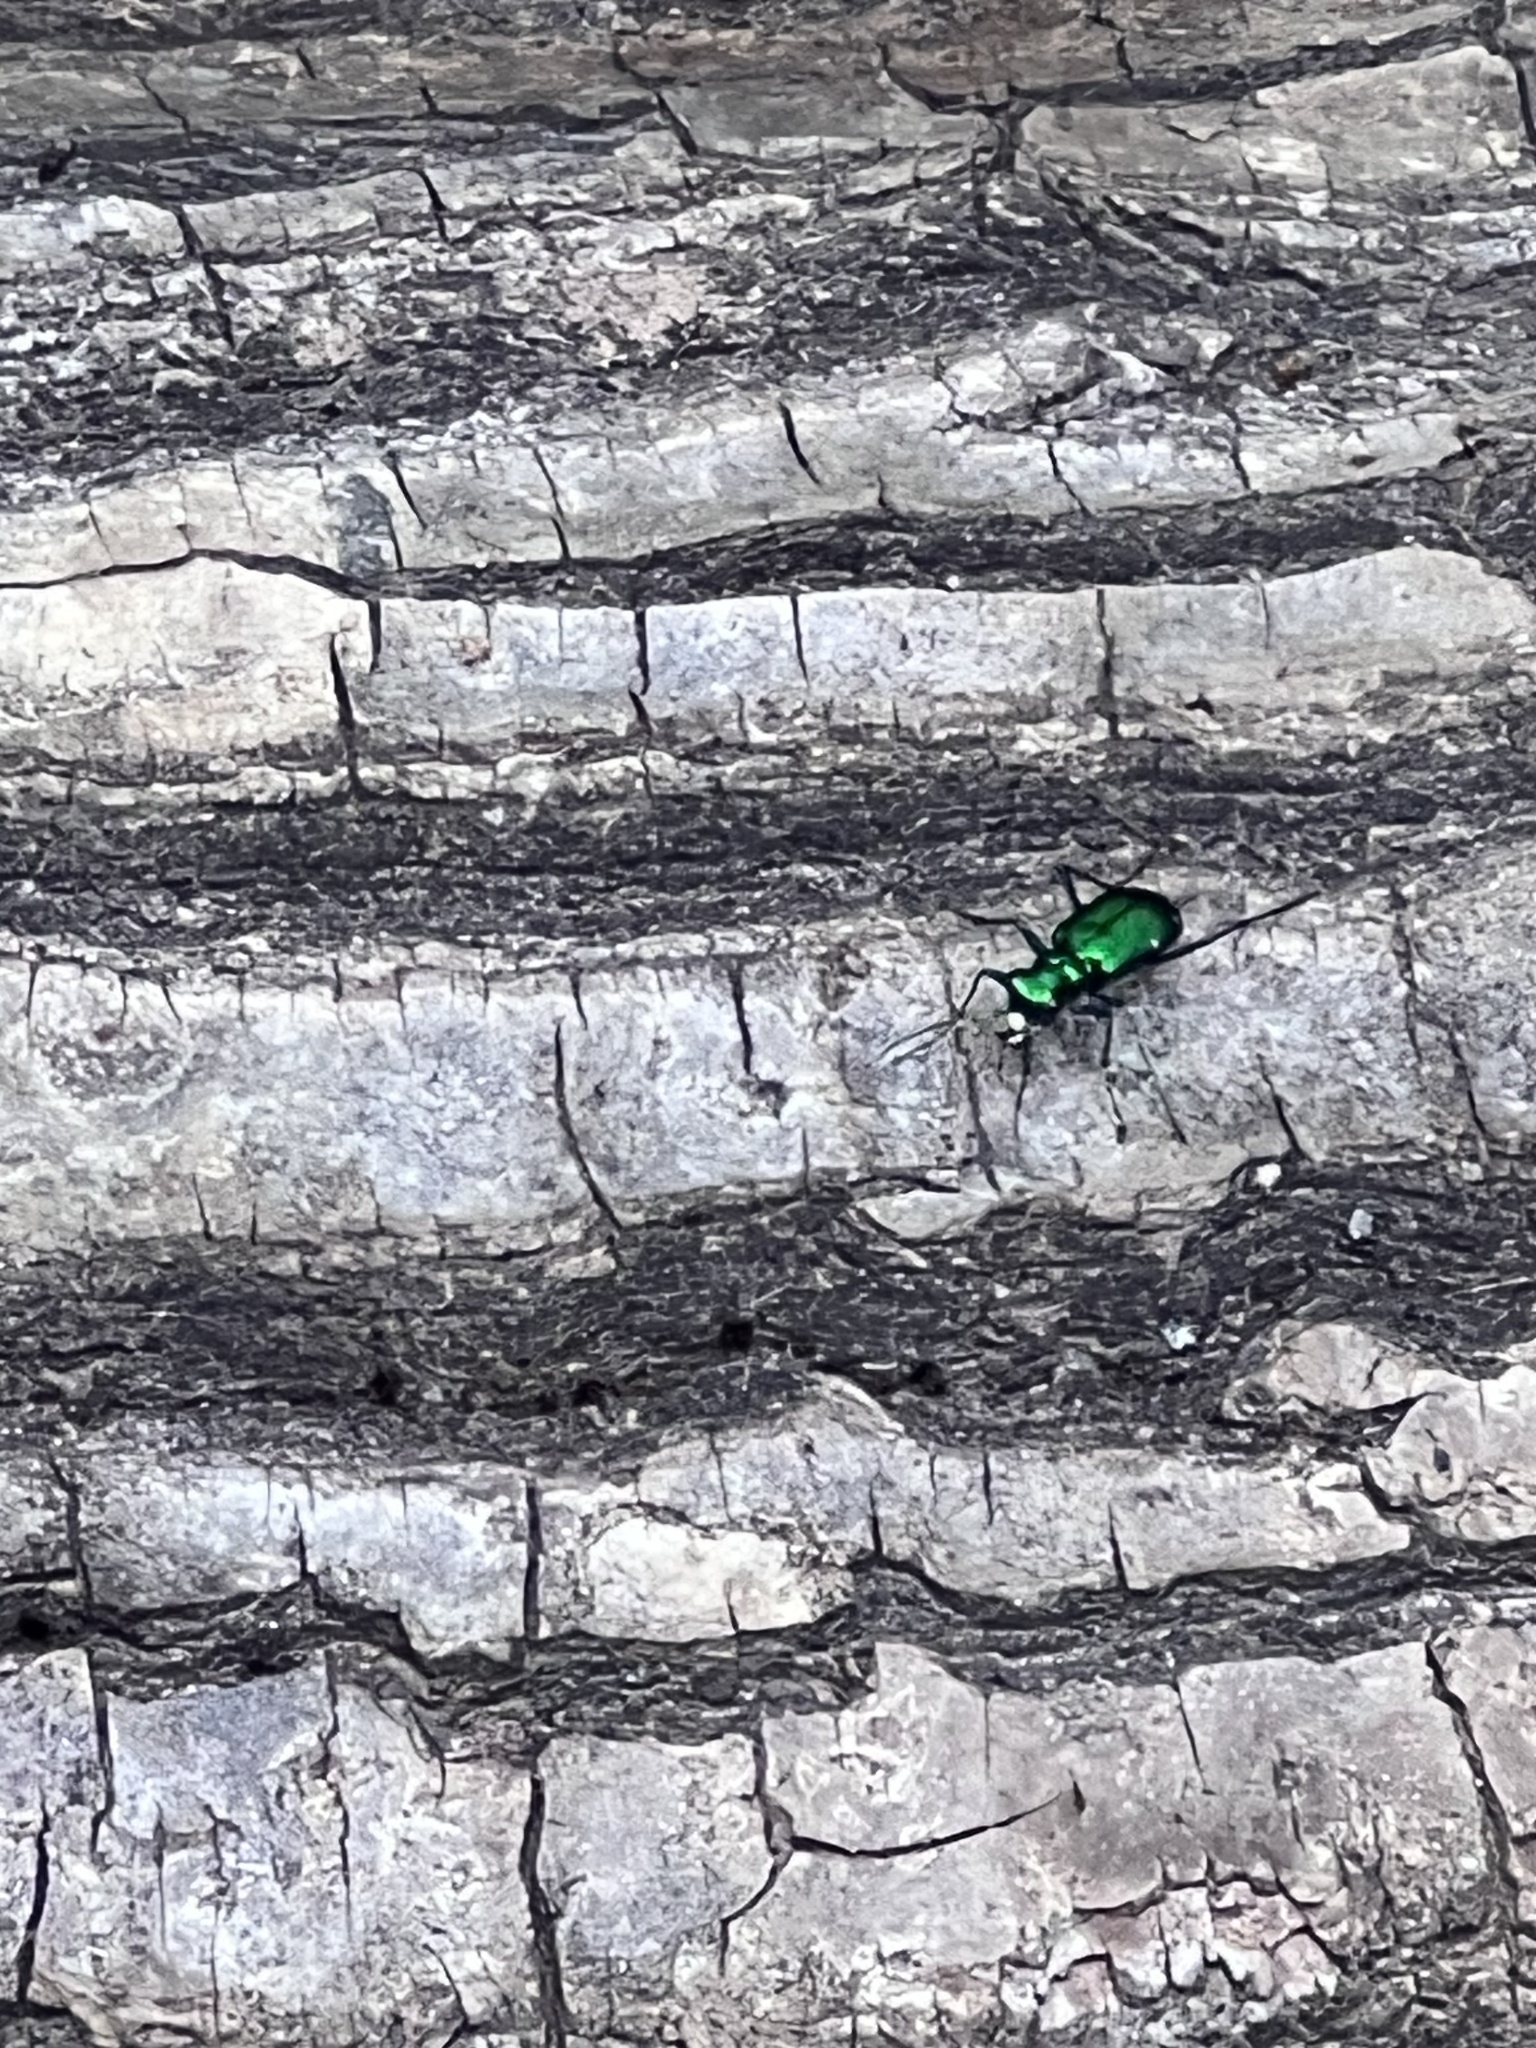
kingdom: Animalia
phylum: Arthropoda
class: Insecta
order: Coleoptera
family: Carabidae
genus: Cicindela
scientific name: Cicindela sexguttata
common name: Six-spotted tiger beetle
